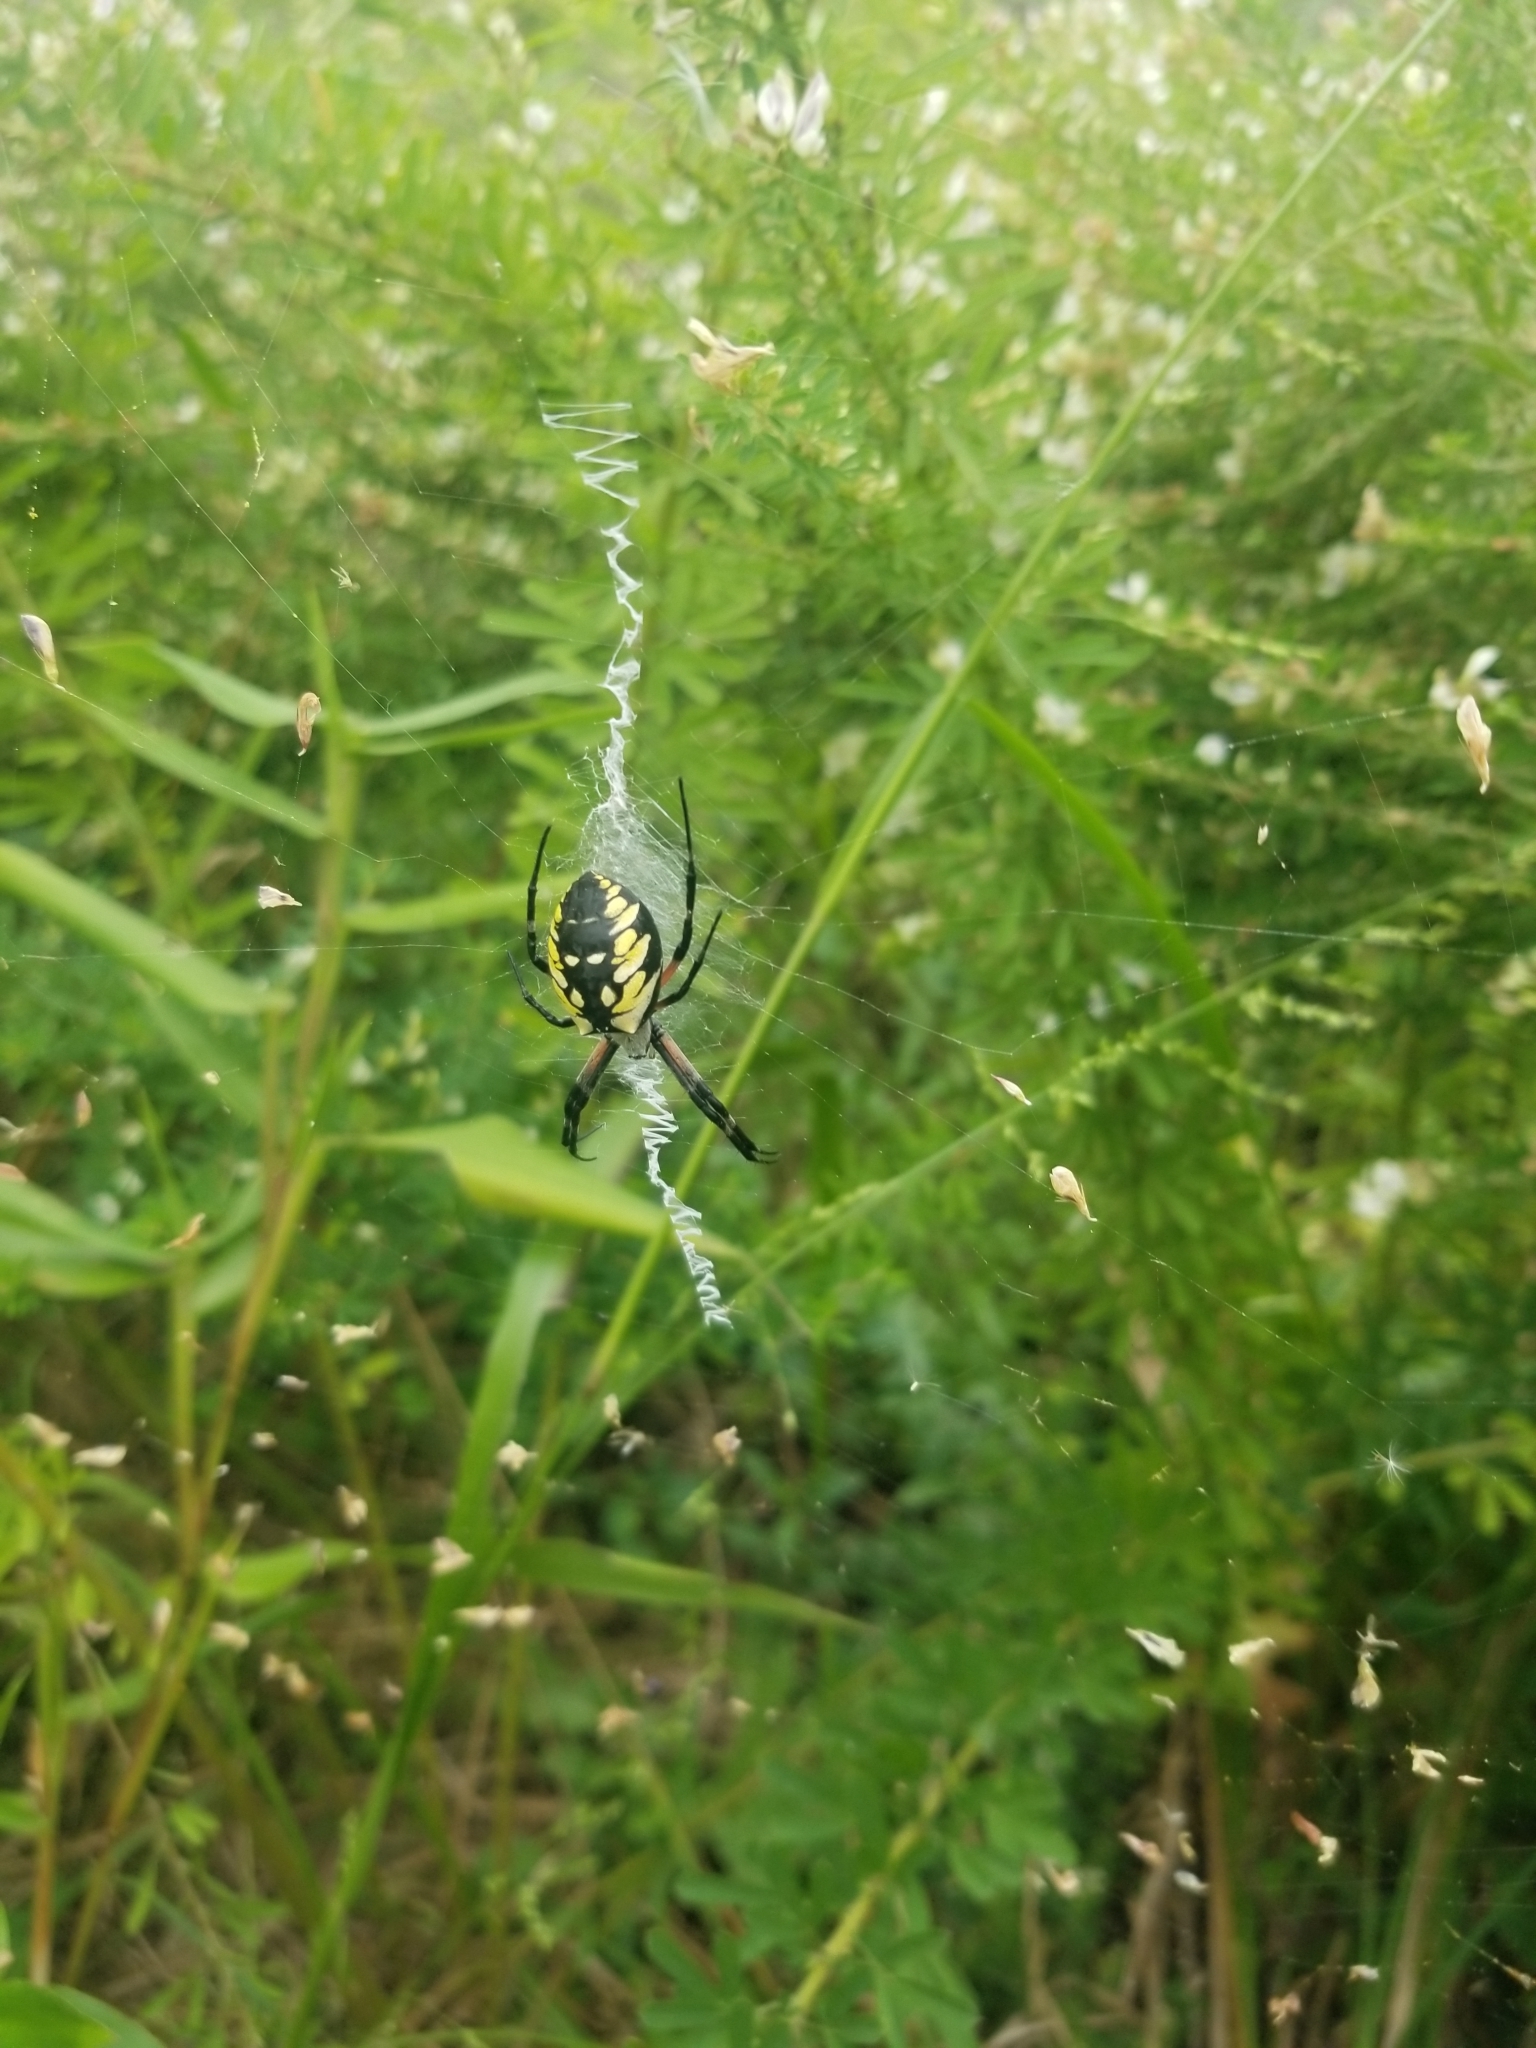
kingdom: Animalia
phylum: Arthropoda
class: Arachnida
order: Araneae
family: Araneidae
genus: Argiope
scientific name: Argiope aurantia
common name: Orb weavers
